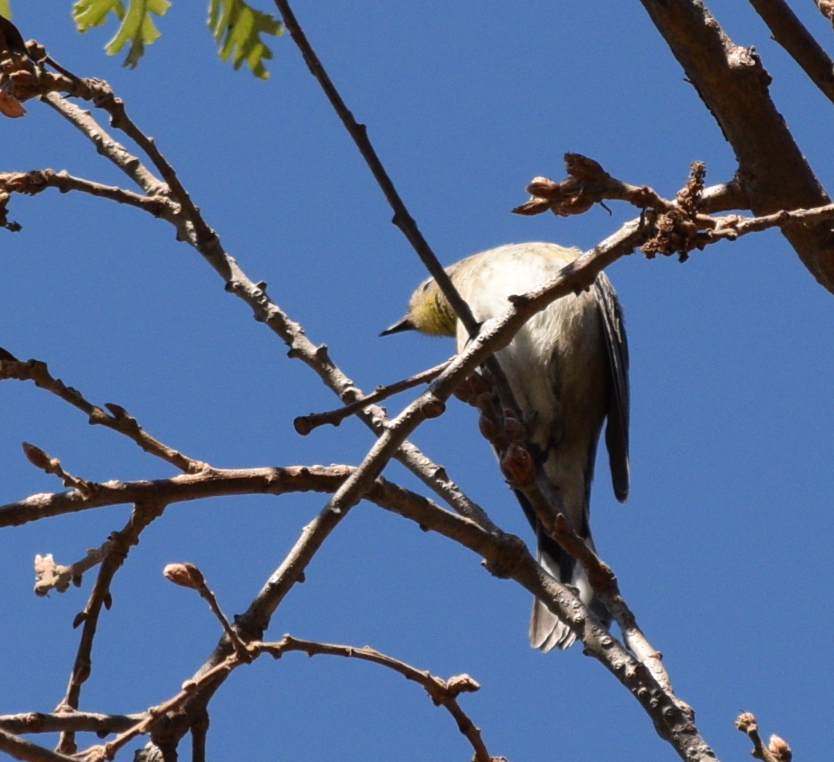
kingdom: Animalia
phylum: Chordata
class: Aves
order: Passeriformes
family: Parulidae
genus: Setophaga
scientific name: Setophaga coronata
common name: Myrtle warbler
